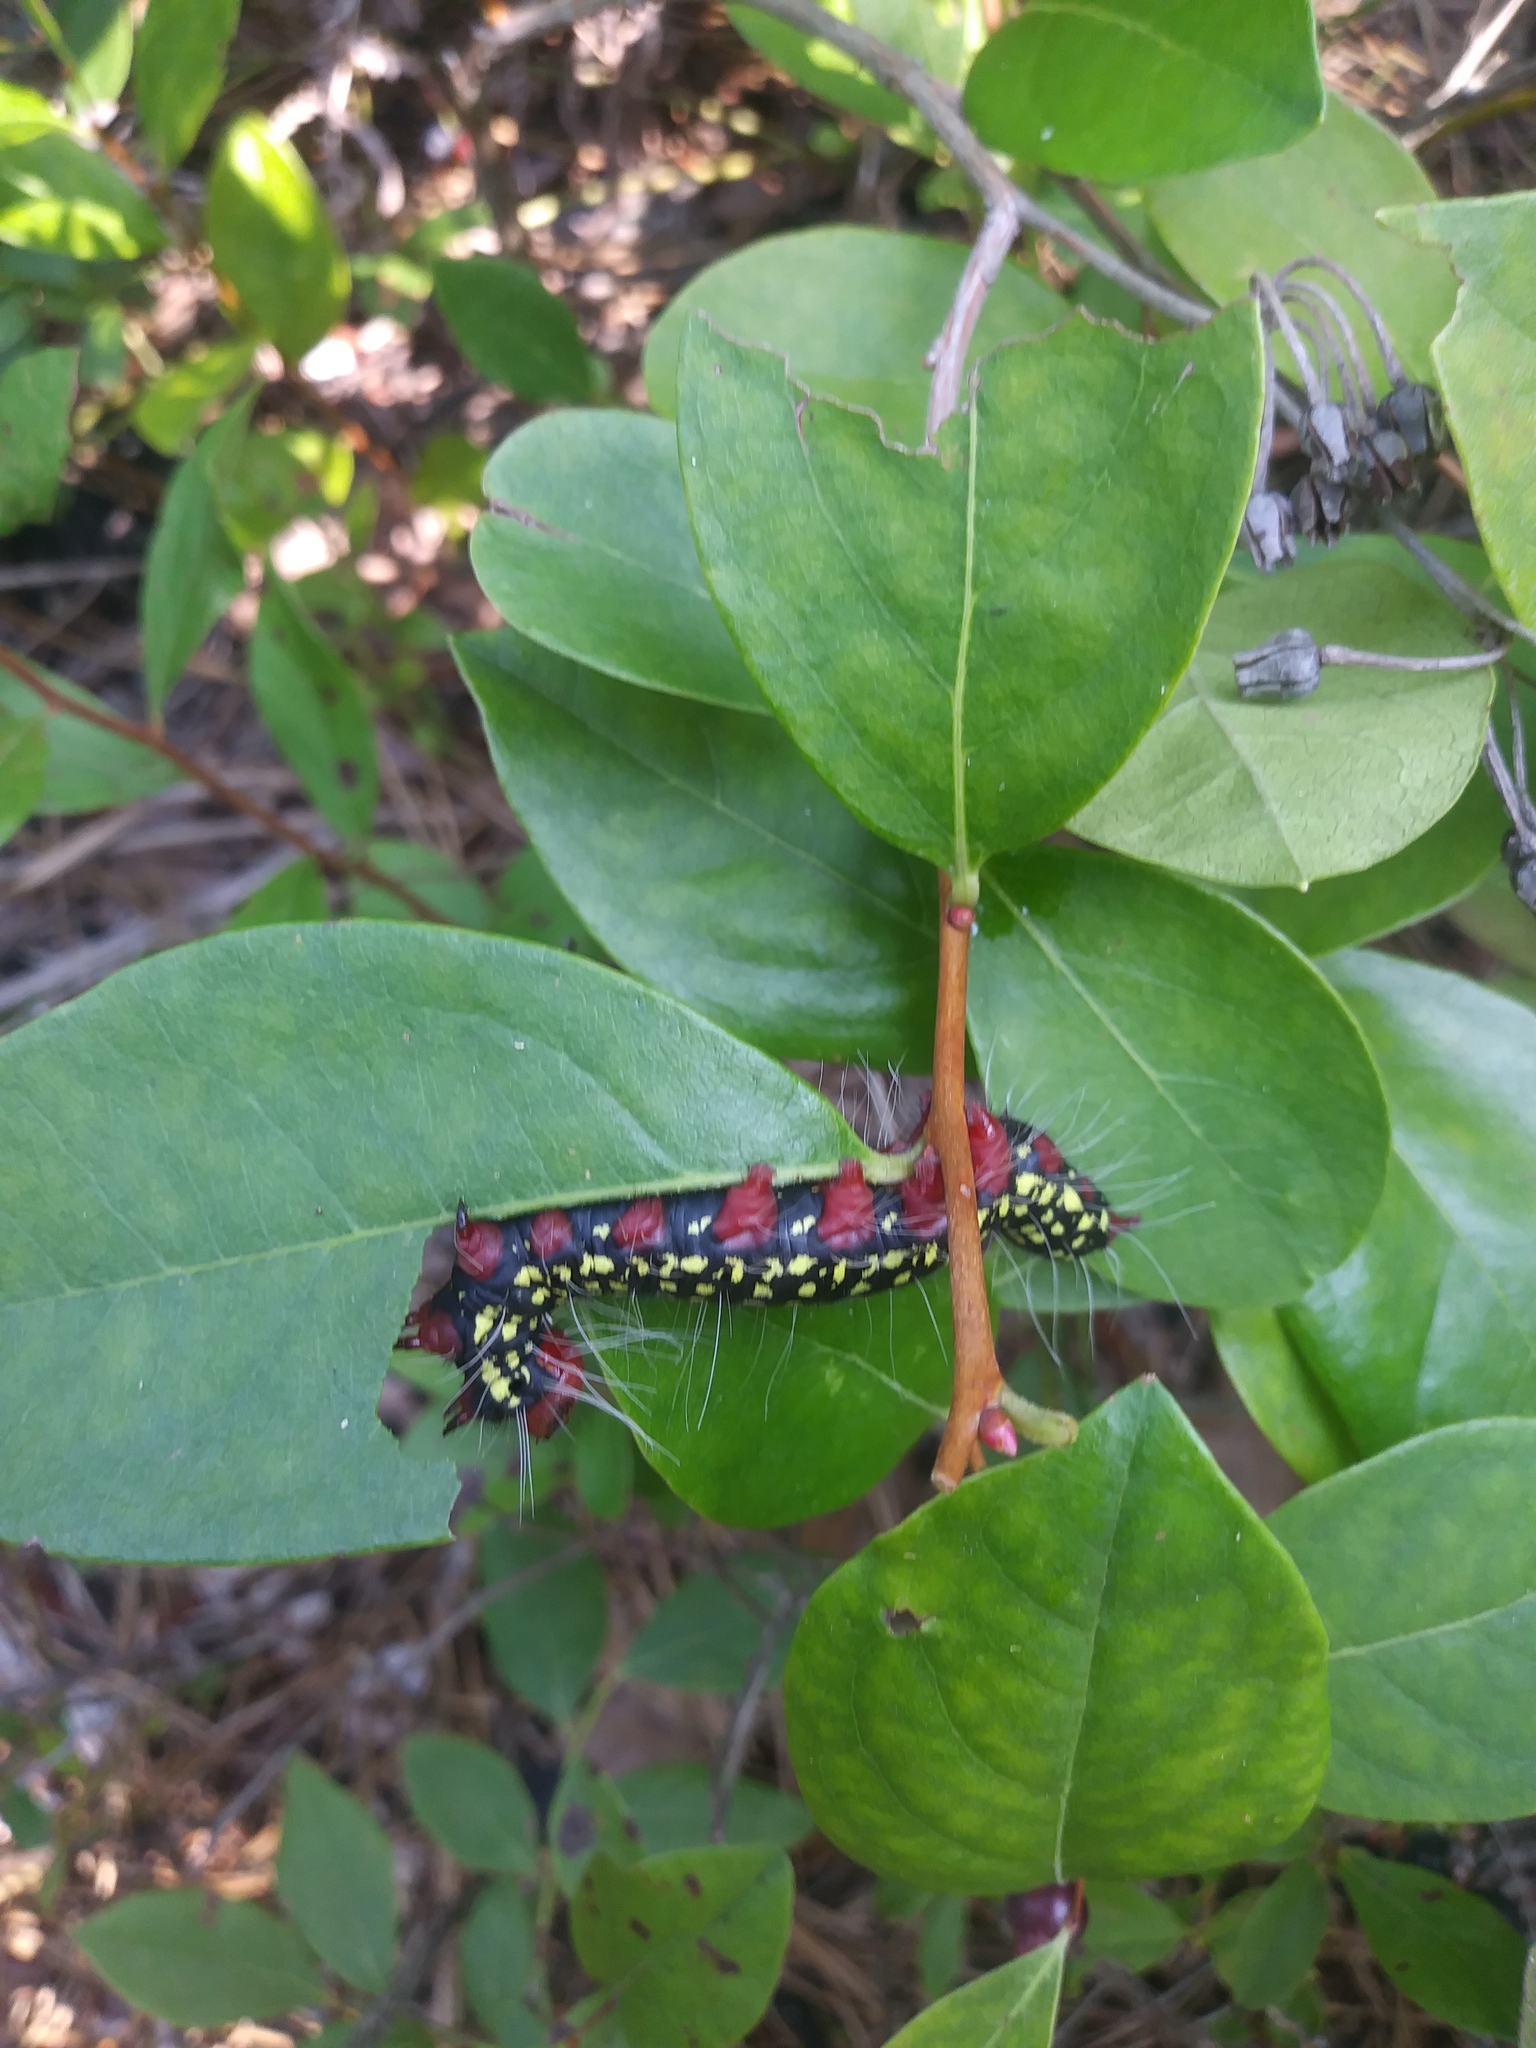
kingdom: Animalia
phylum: Arthropoda
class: Insecta
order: Lepidoptera
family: Notodontidae
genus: Datana
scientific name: Datana major
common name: Azalea caterpillar
